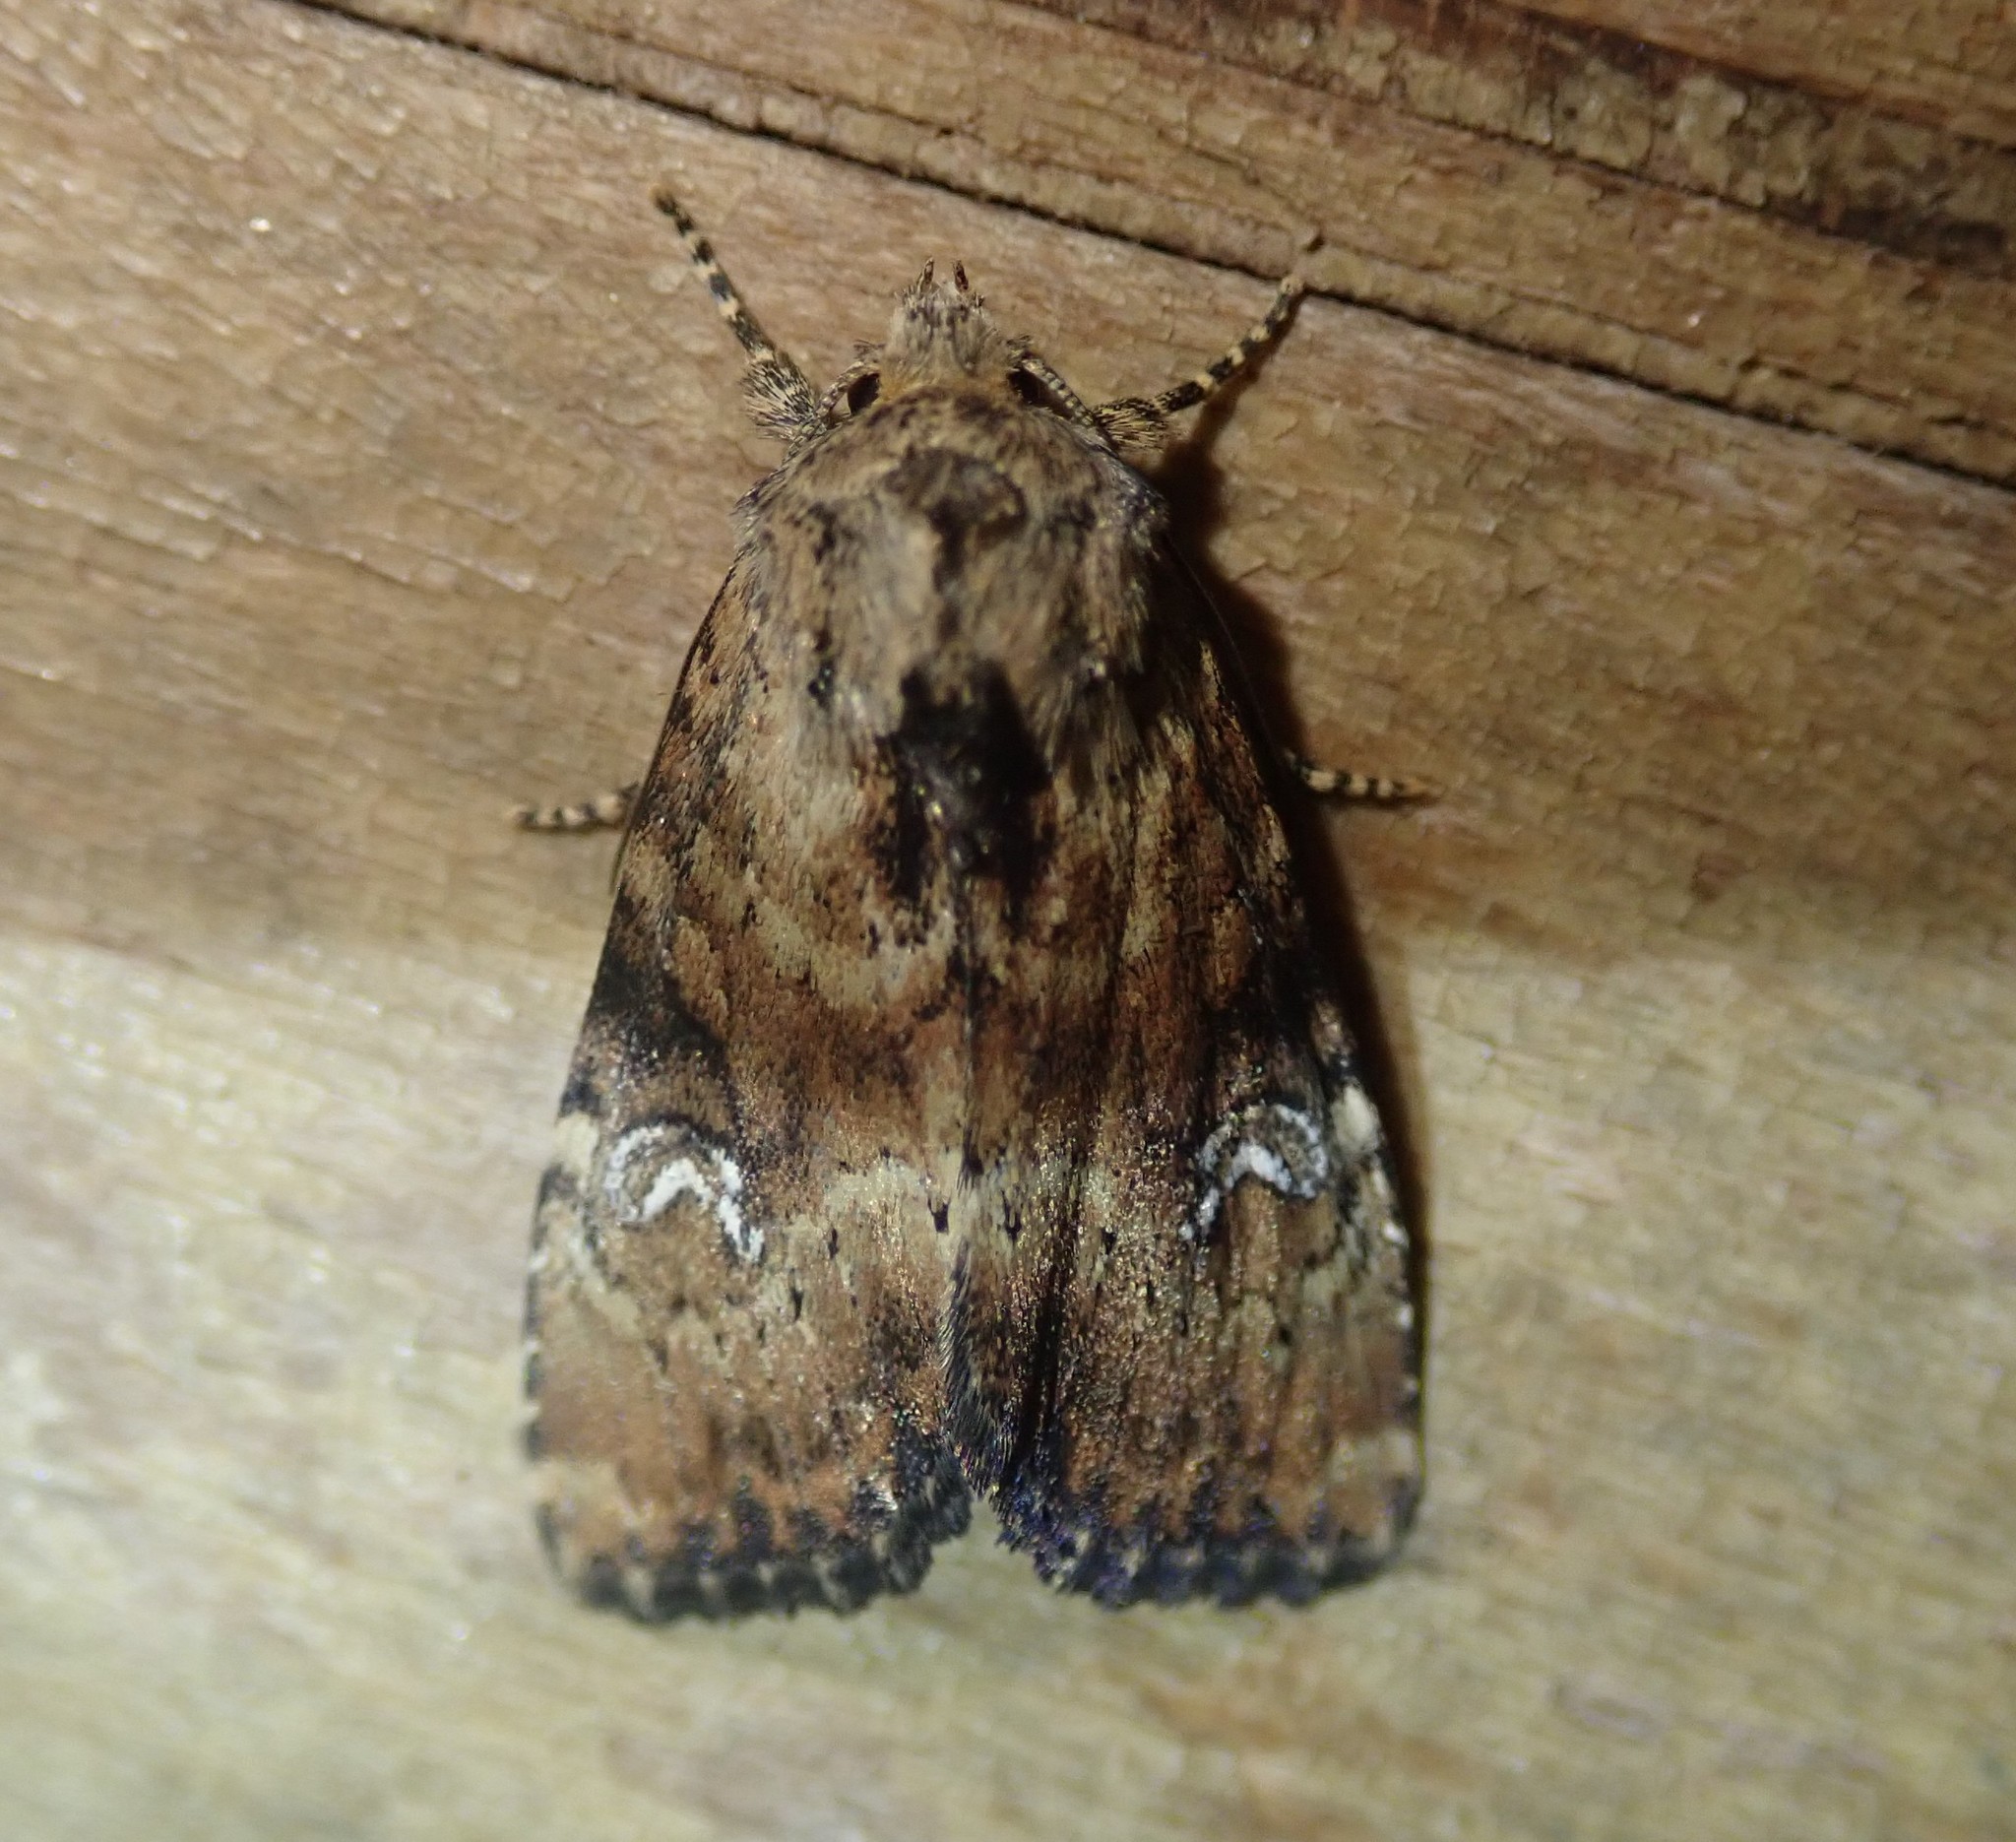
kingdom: Animalia
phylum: Arthropoda
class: Insecta
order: Lepidoptera
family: Noctuidae
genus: Loscopia
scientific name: Loscopia scolopacina
